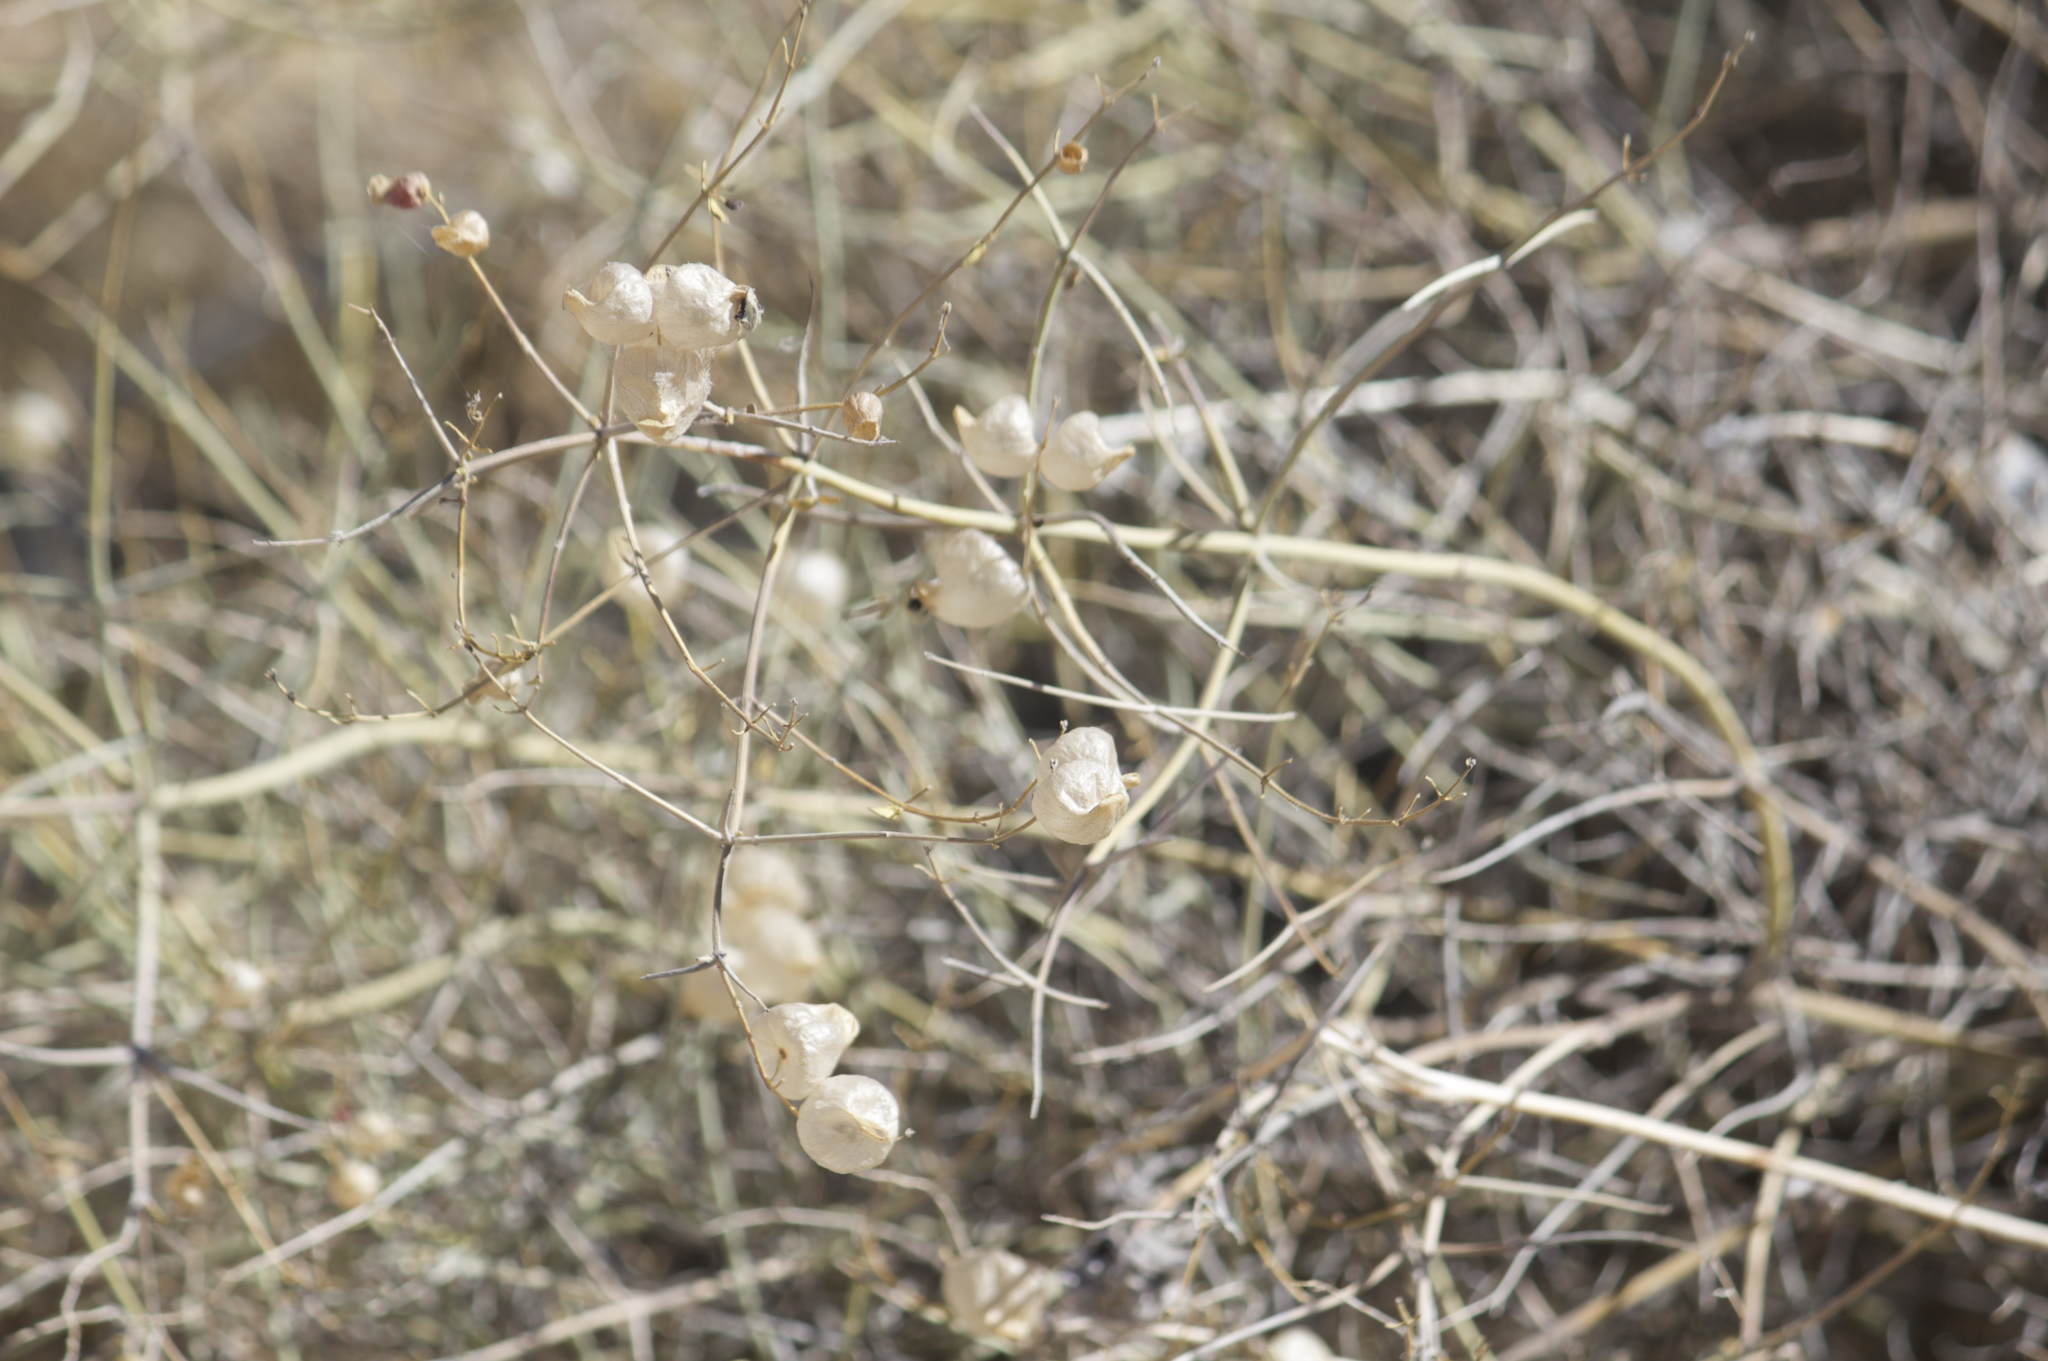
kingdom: Plantae
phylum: Tracheophyta
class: Magnoliopsida
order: Lamiales
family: Lamiaceae
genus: Scutellaria
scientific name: Scutellaria mexicana
